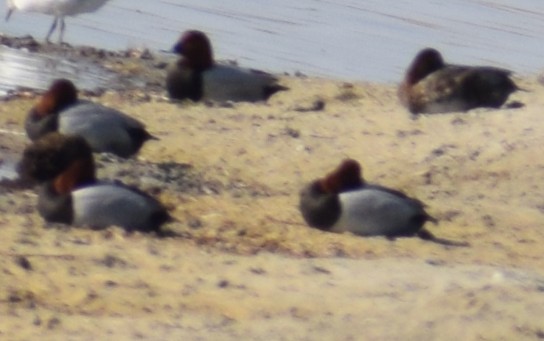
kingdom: Animalia
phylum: Chordata
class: Aves
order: Anseriformes
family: Anatidae
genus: Aythya
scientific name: Aythya ferina
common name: Common pochard
